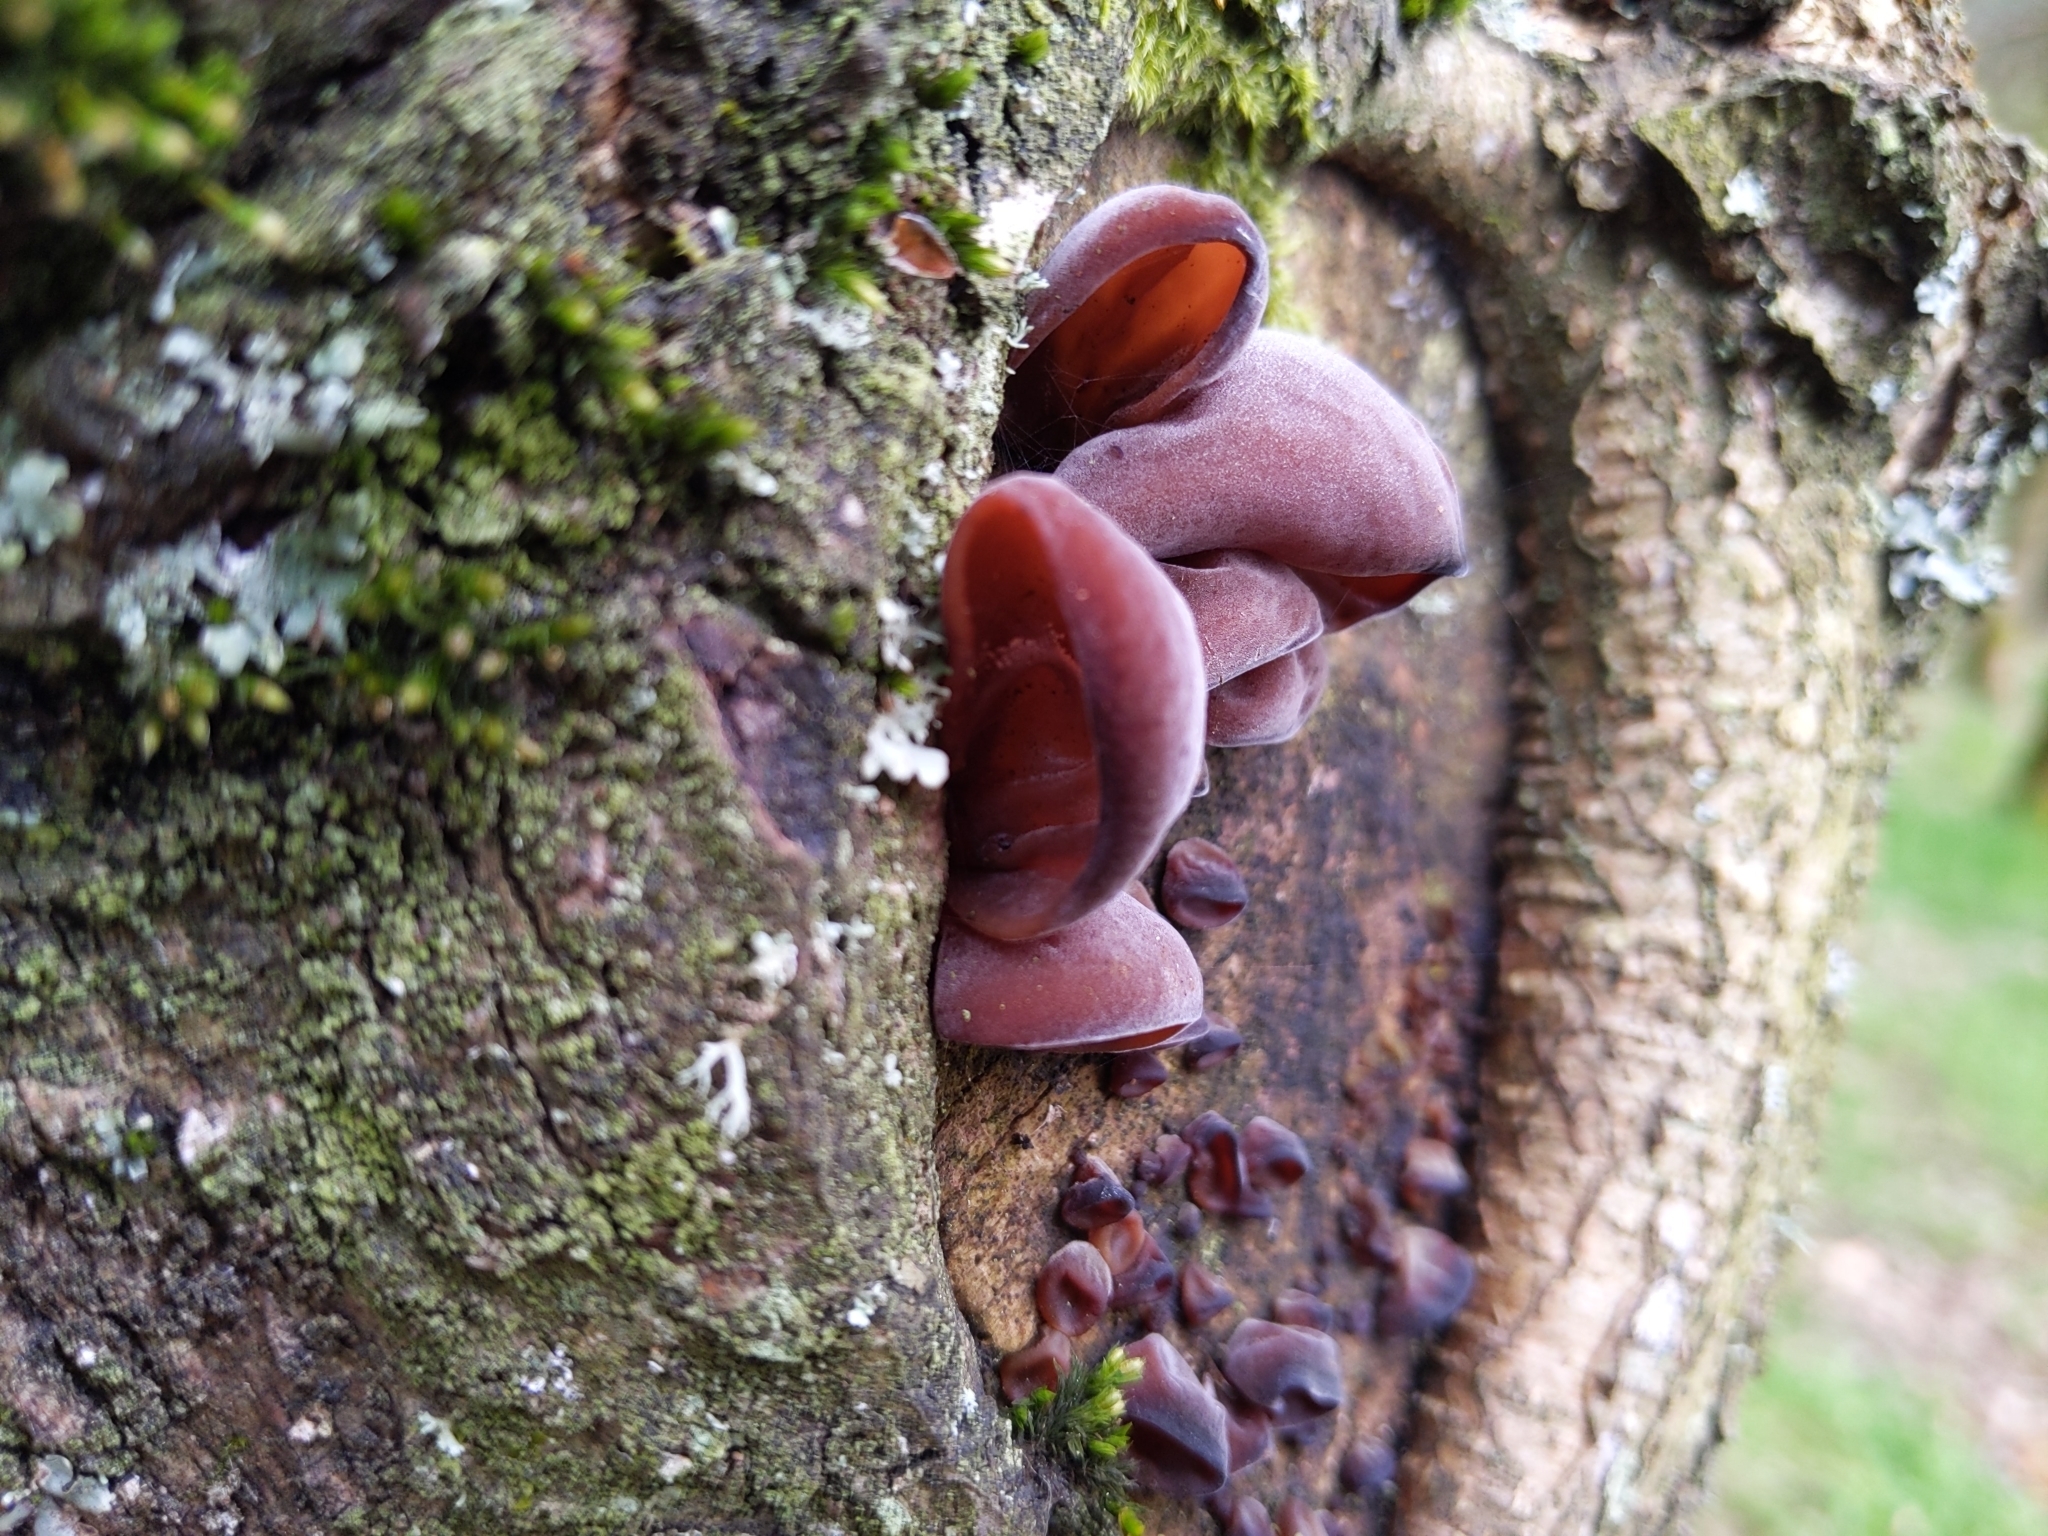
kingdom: Fungi
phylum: Basidiomycota
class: Agaricomycetes
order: Auriculariales
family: Auriculariaceae
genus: Auricularia
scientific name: Auricularia auricula-judae
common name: Jelly ear
